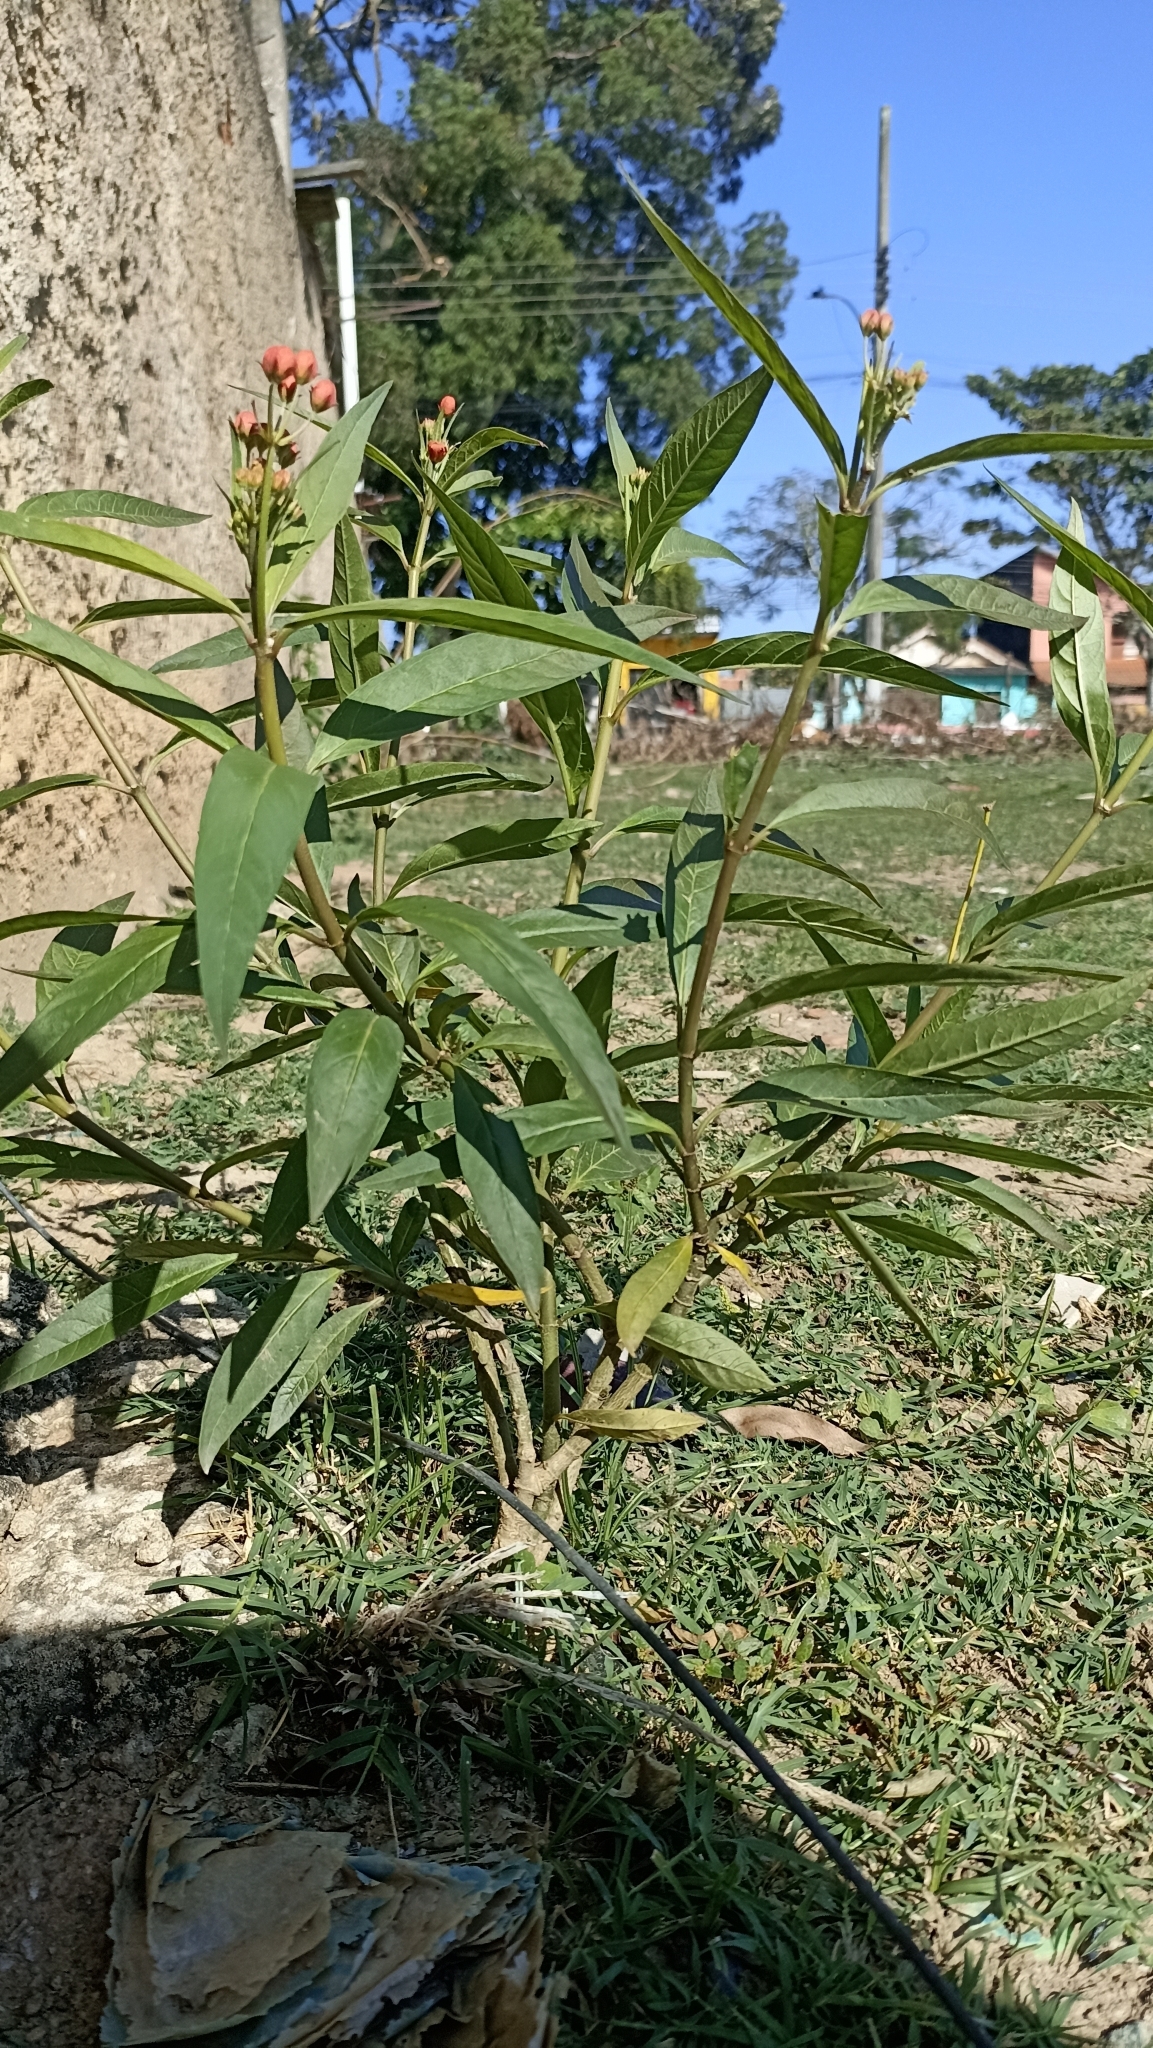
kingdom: Plantae
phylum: Tracheophyta
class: Magnoliopsida
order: Gentianales
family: Apocynaceae
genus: Asclepias
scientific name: Asclepias curassavica
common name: Bloodflower
